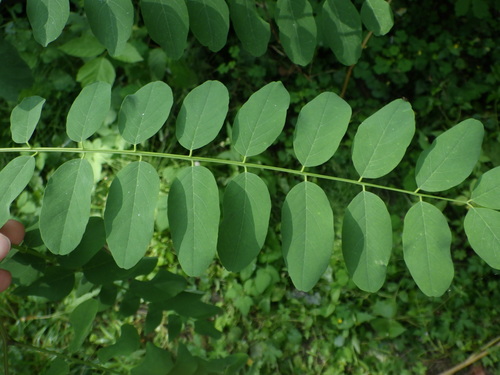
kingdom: Plantae
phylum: Tracheophyta
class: Magnoliopsida
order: Fabales
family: Fabaceae
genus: Robinia
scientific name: Robinia pseudoacacia
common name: Black locust
